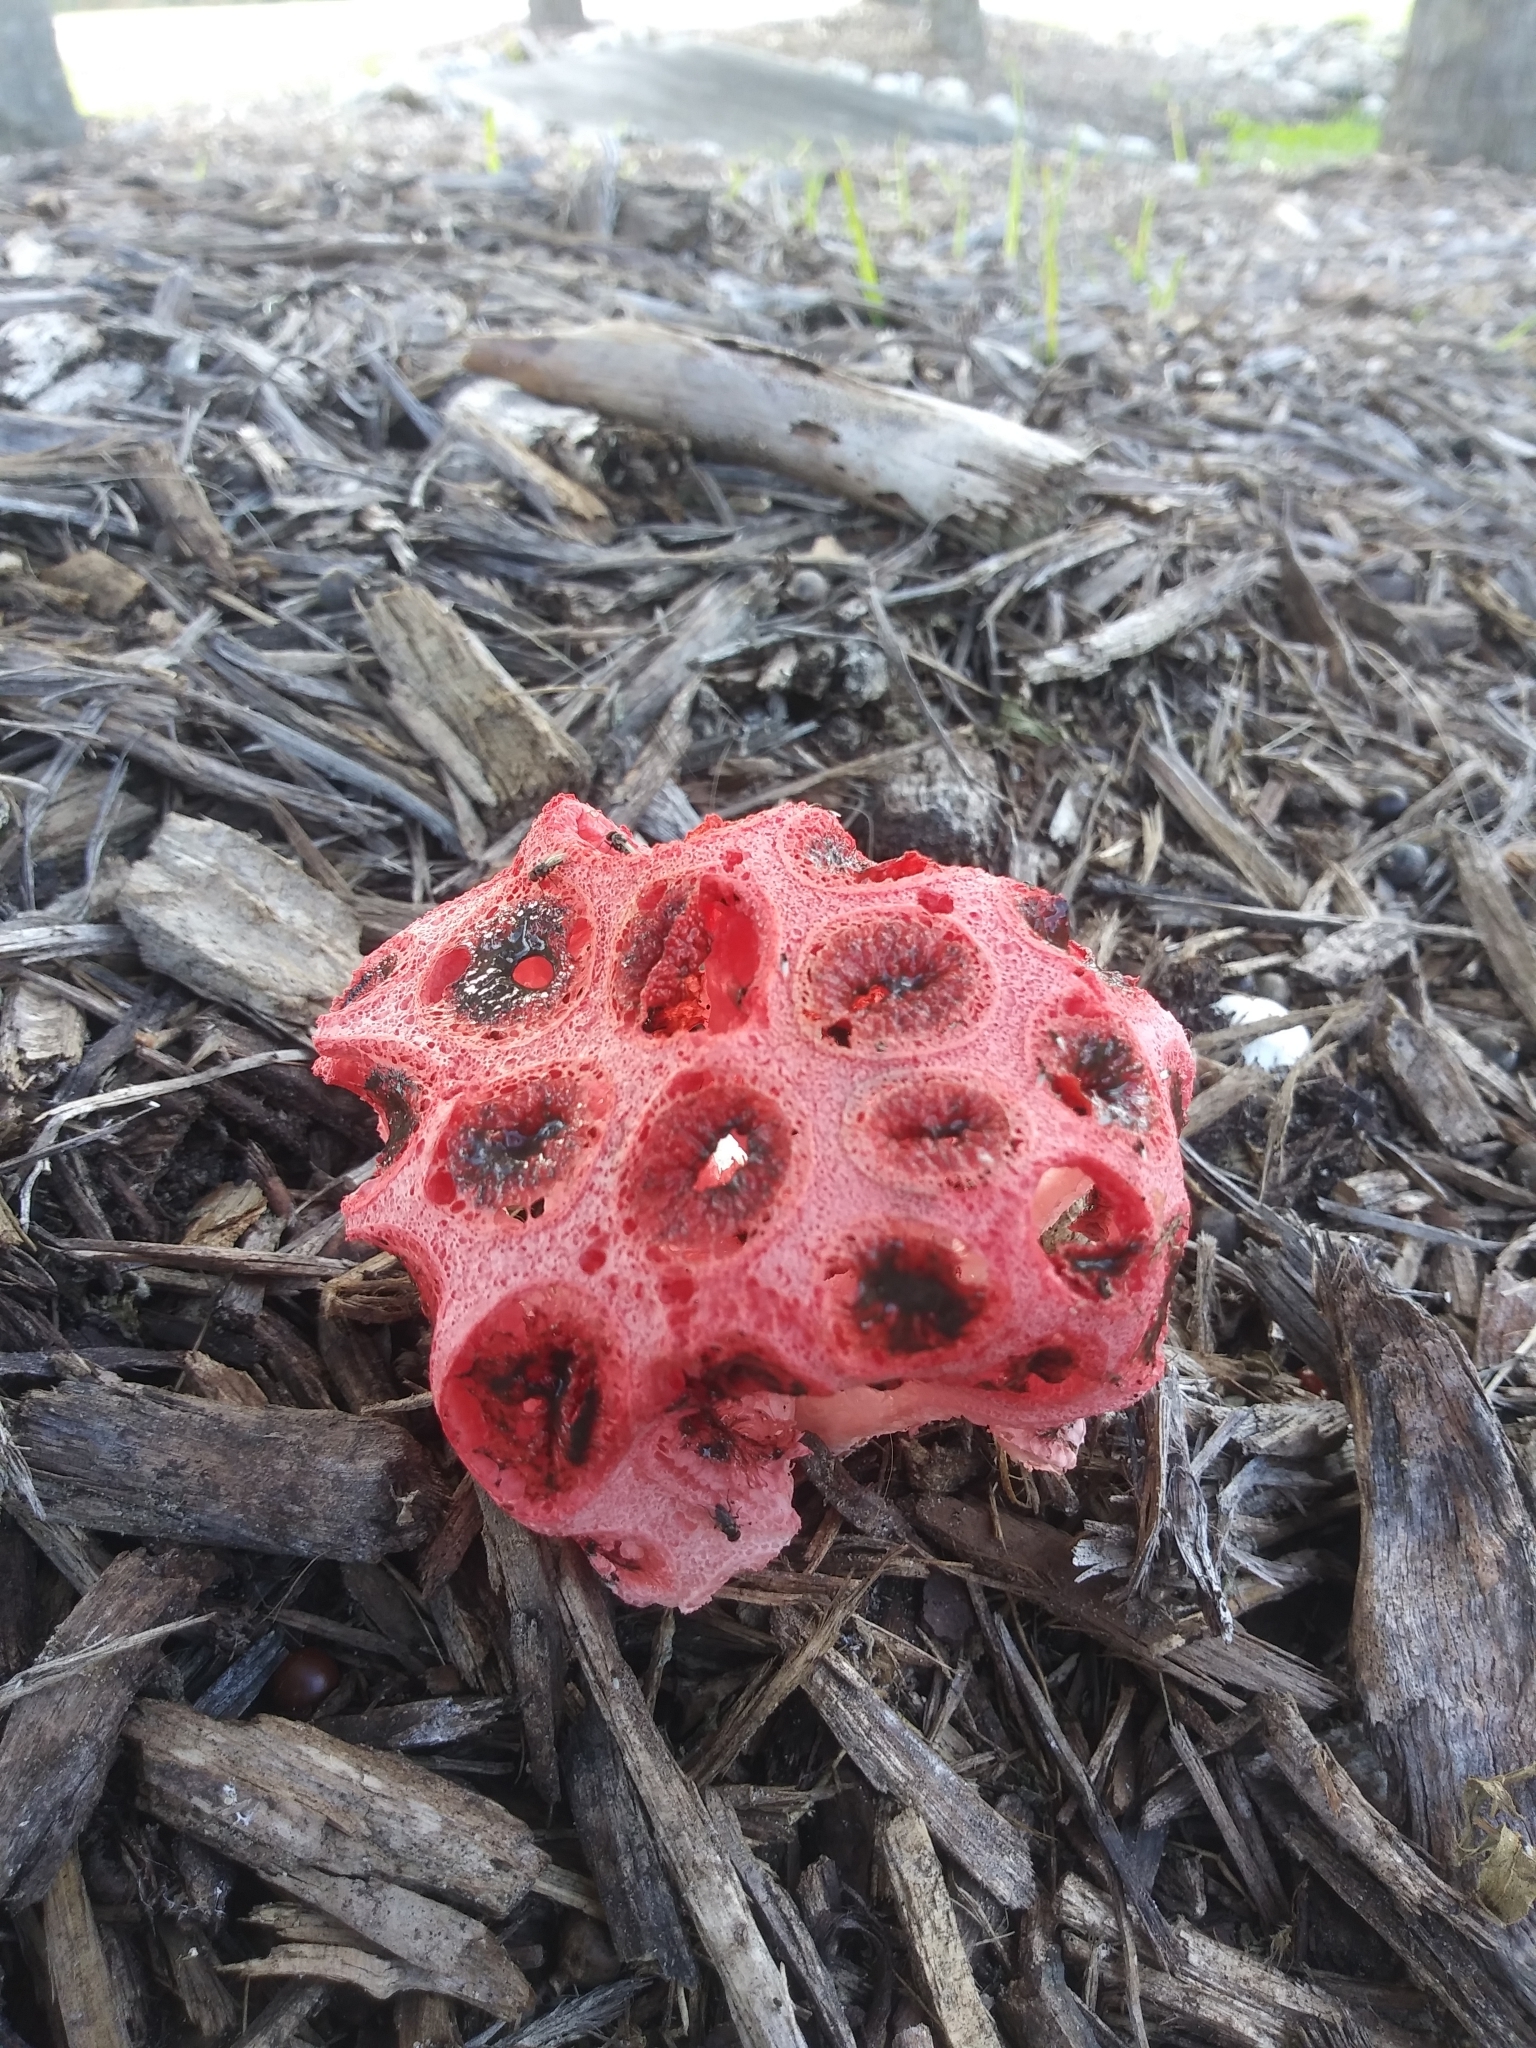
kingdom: Fungi
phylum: Basidiomycota
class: Agaricomycetes
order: Phallales
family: Phallaceae
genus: Clathrus
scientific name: Clathrus crispatus
